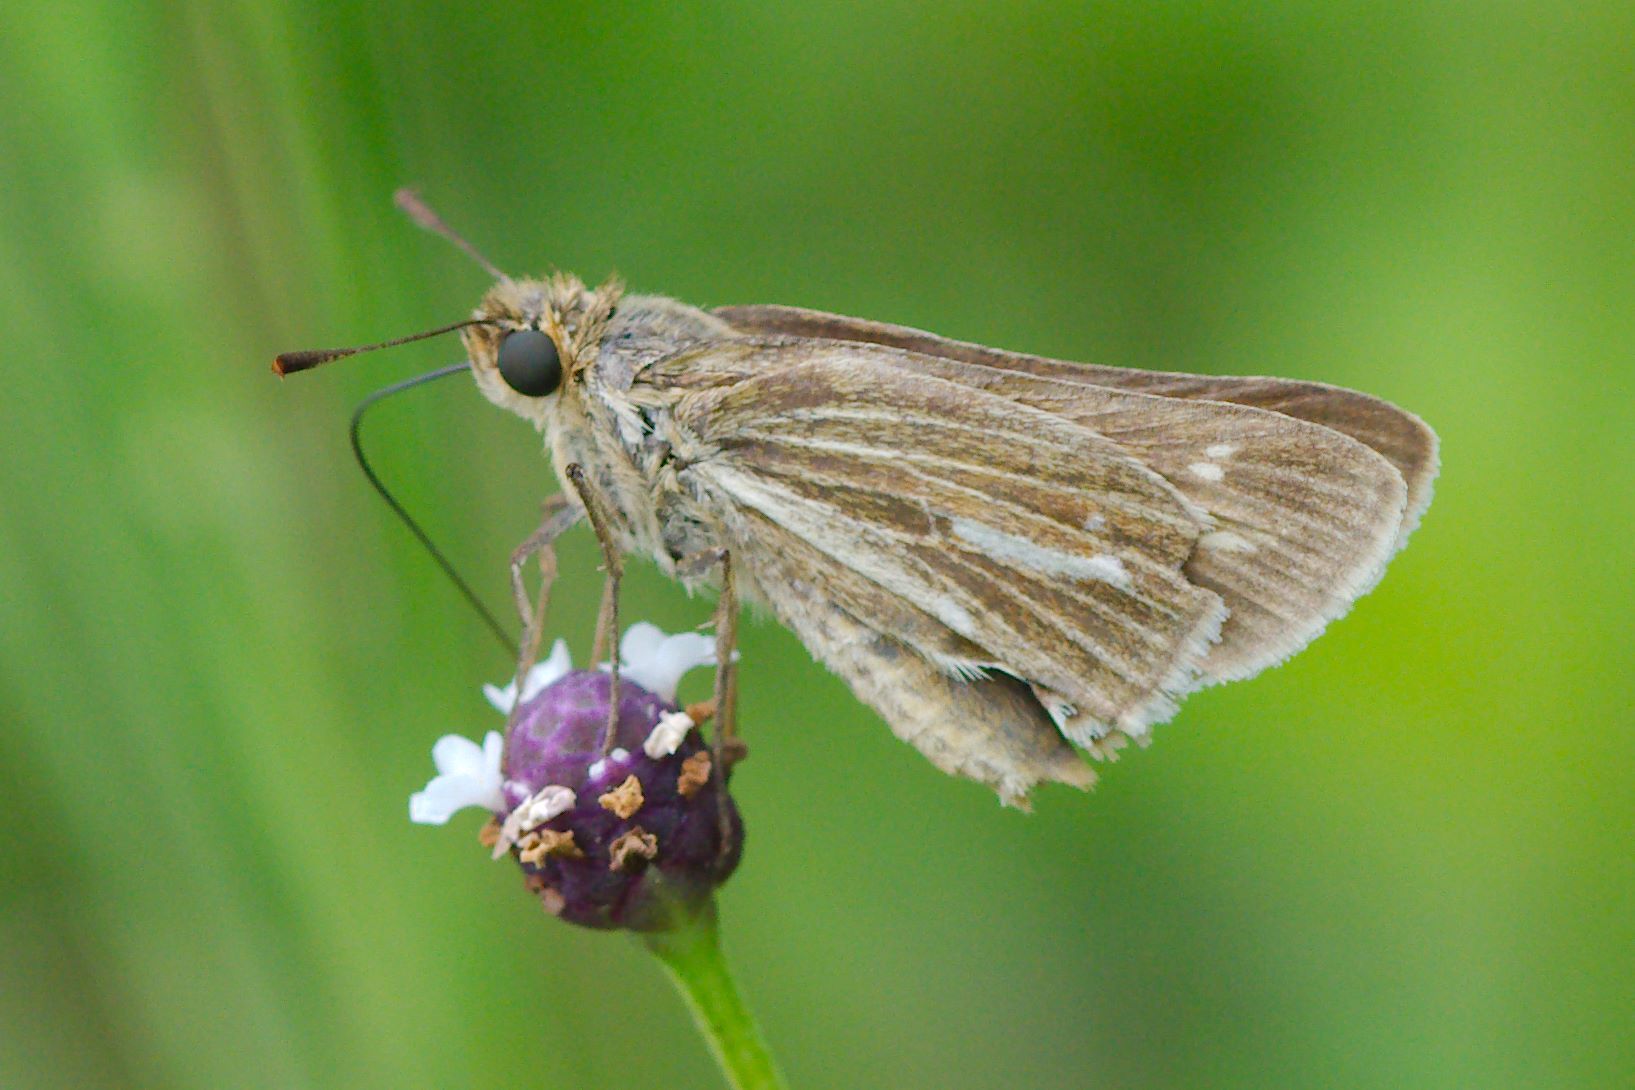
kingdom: Animalia
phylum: Arthropoda
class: Insecta
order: Lepidoptera
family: Hesperiidae
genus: Panoquina
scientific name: Panoquina panoquin
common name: Salt marsh skipper
